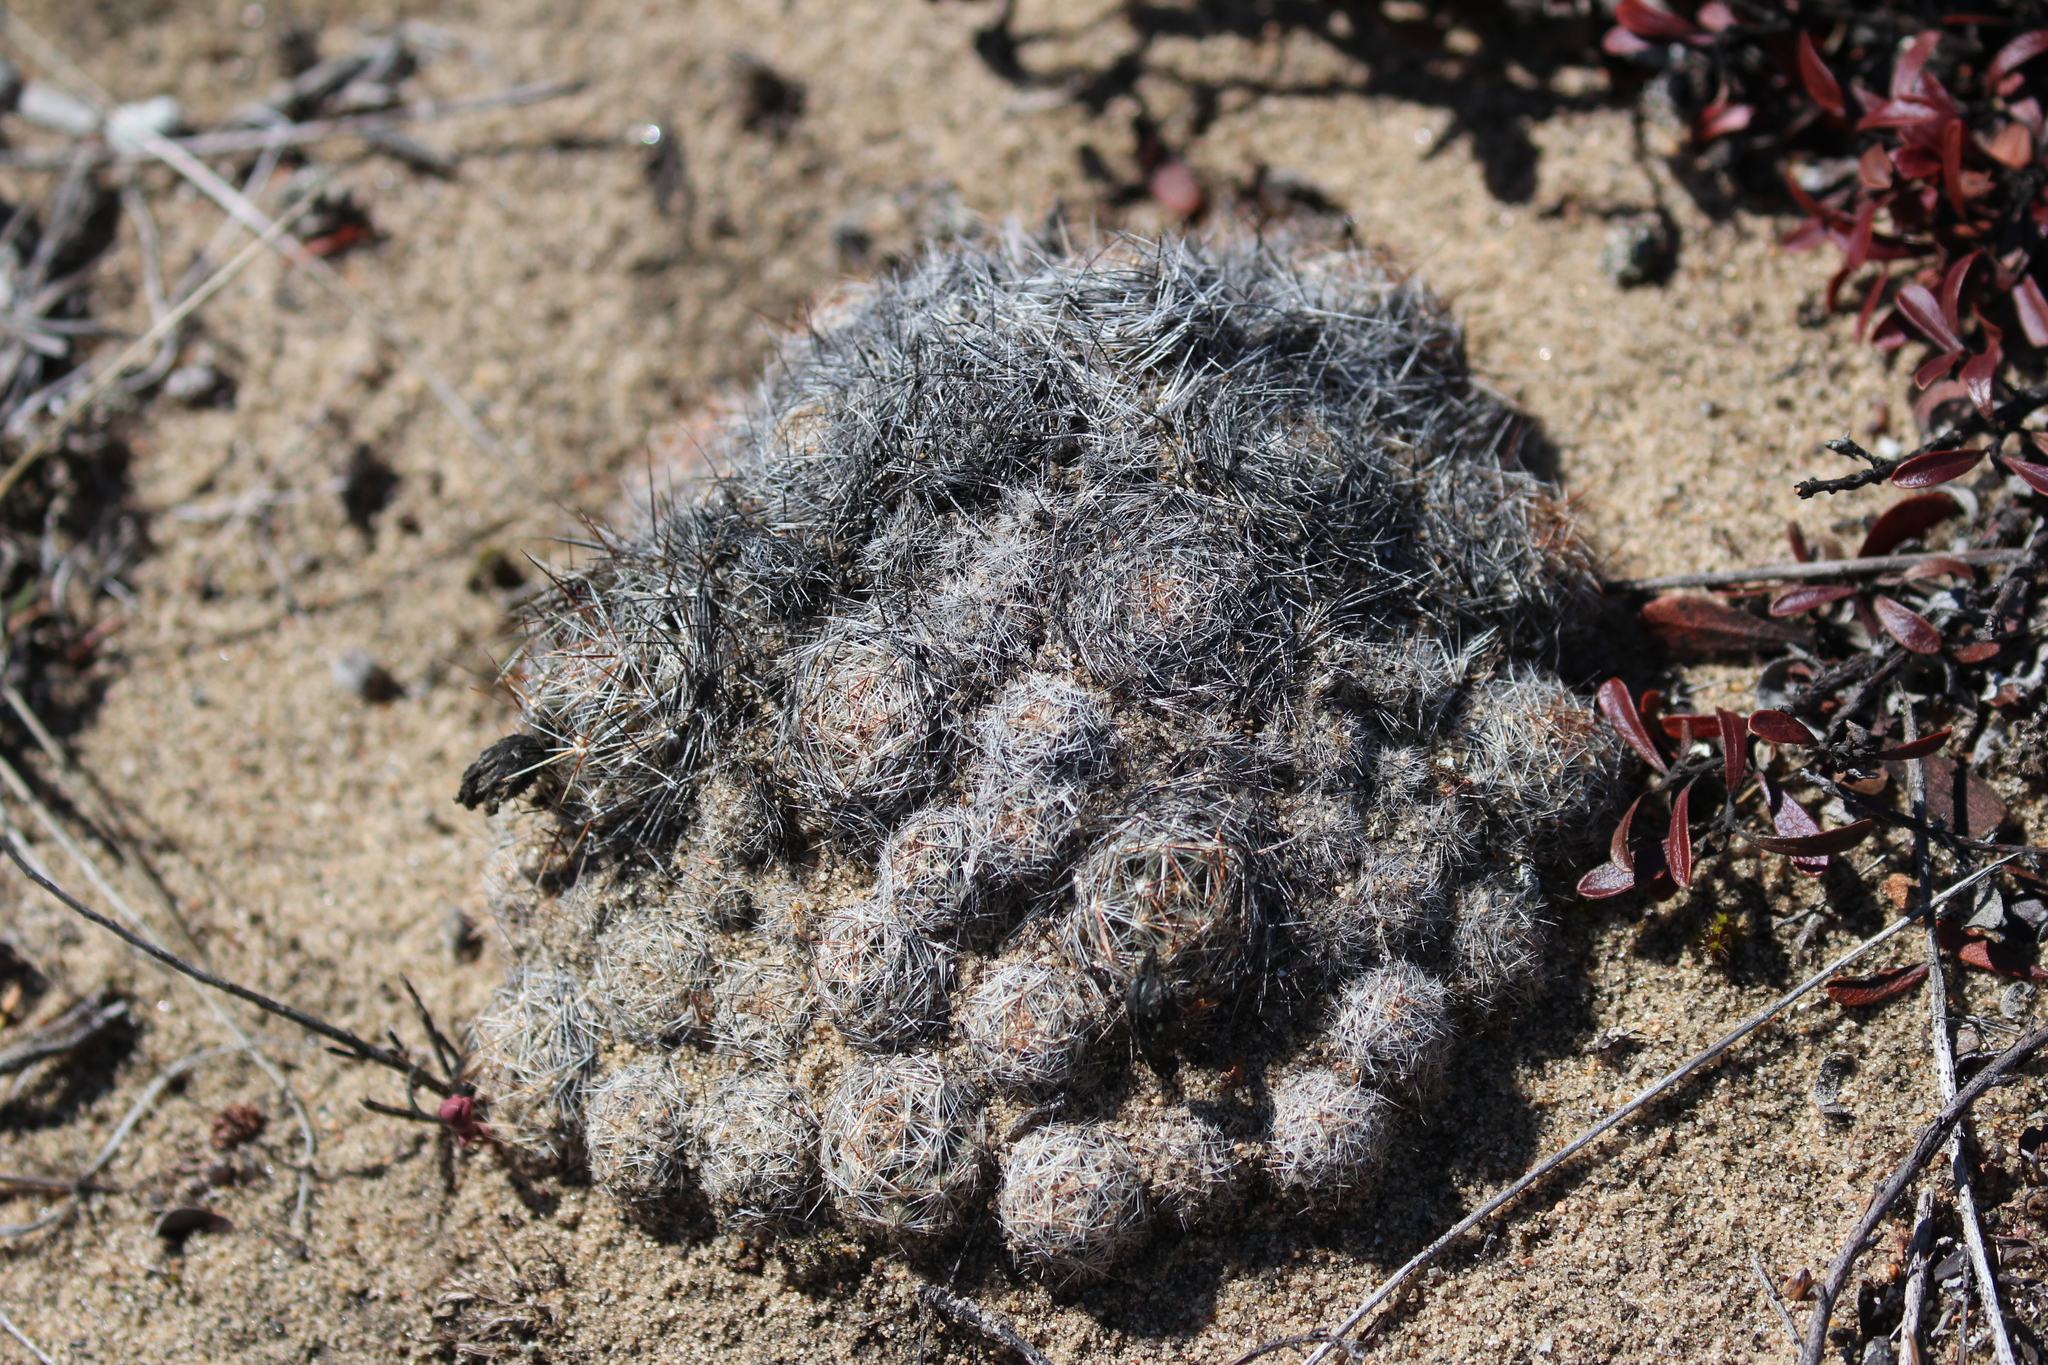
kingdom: Plantae
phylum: Tracheophyta
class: Magnoliopsida
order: Caryophyllales
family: Cactaceae
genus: Pelecyphora
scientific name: Pelecyphora vivipara
